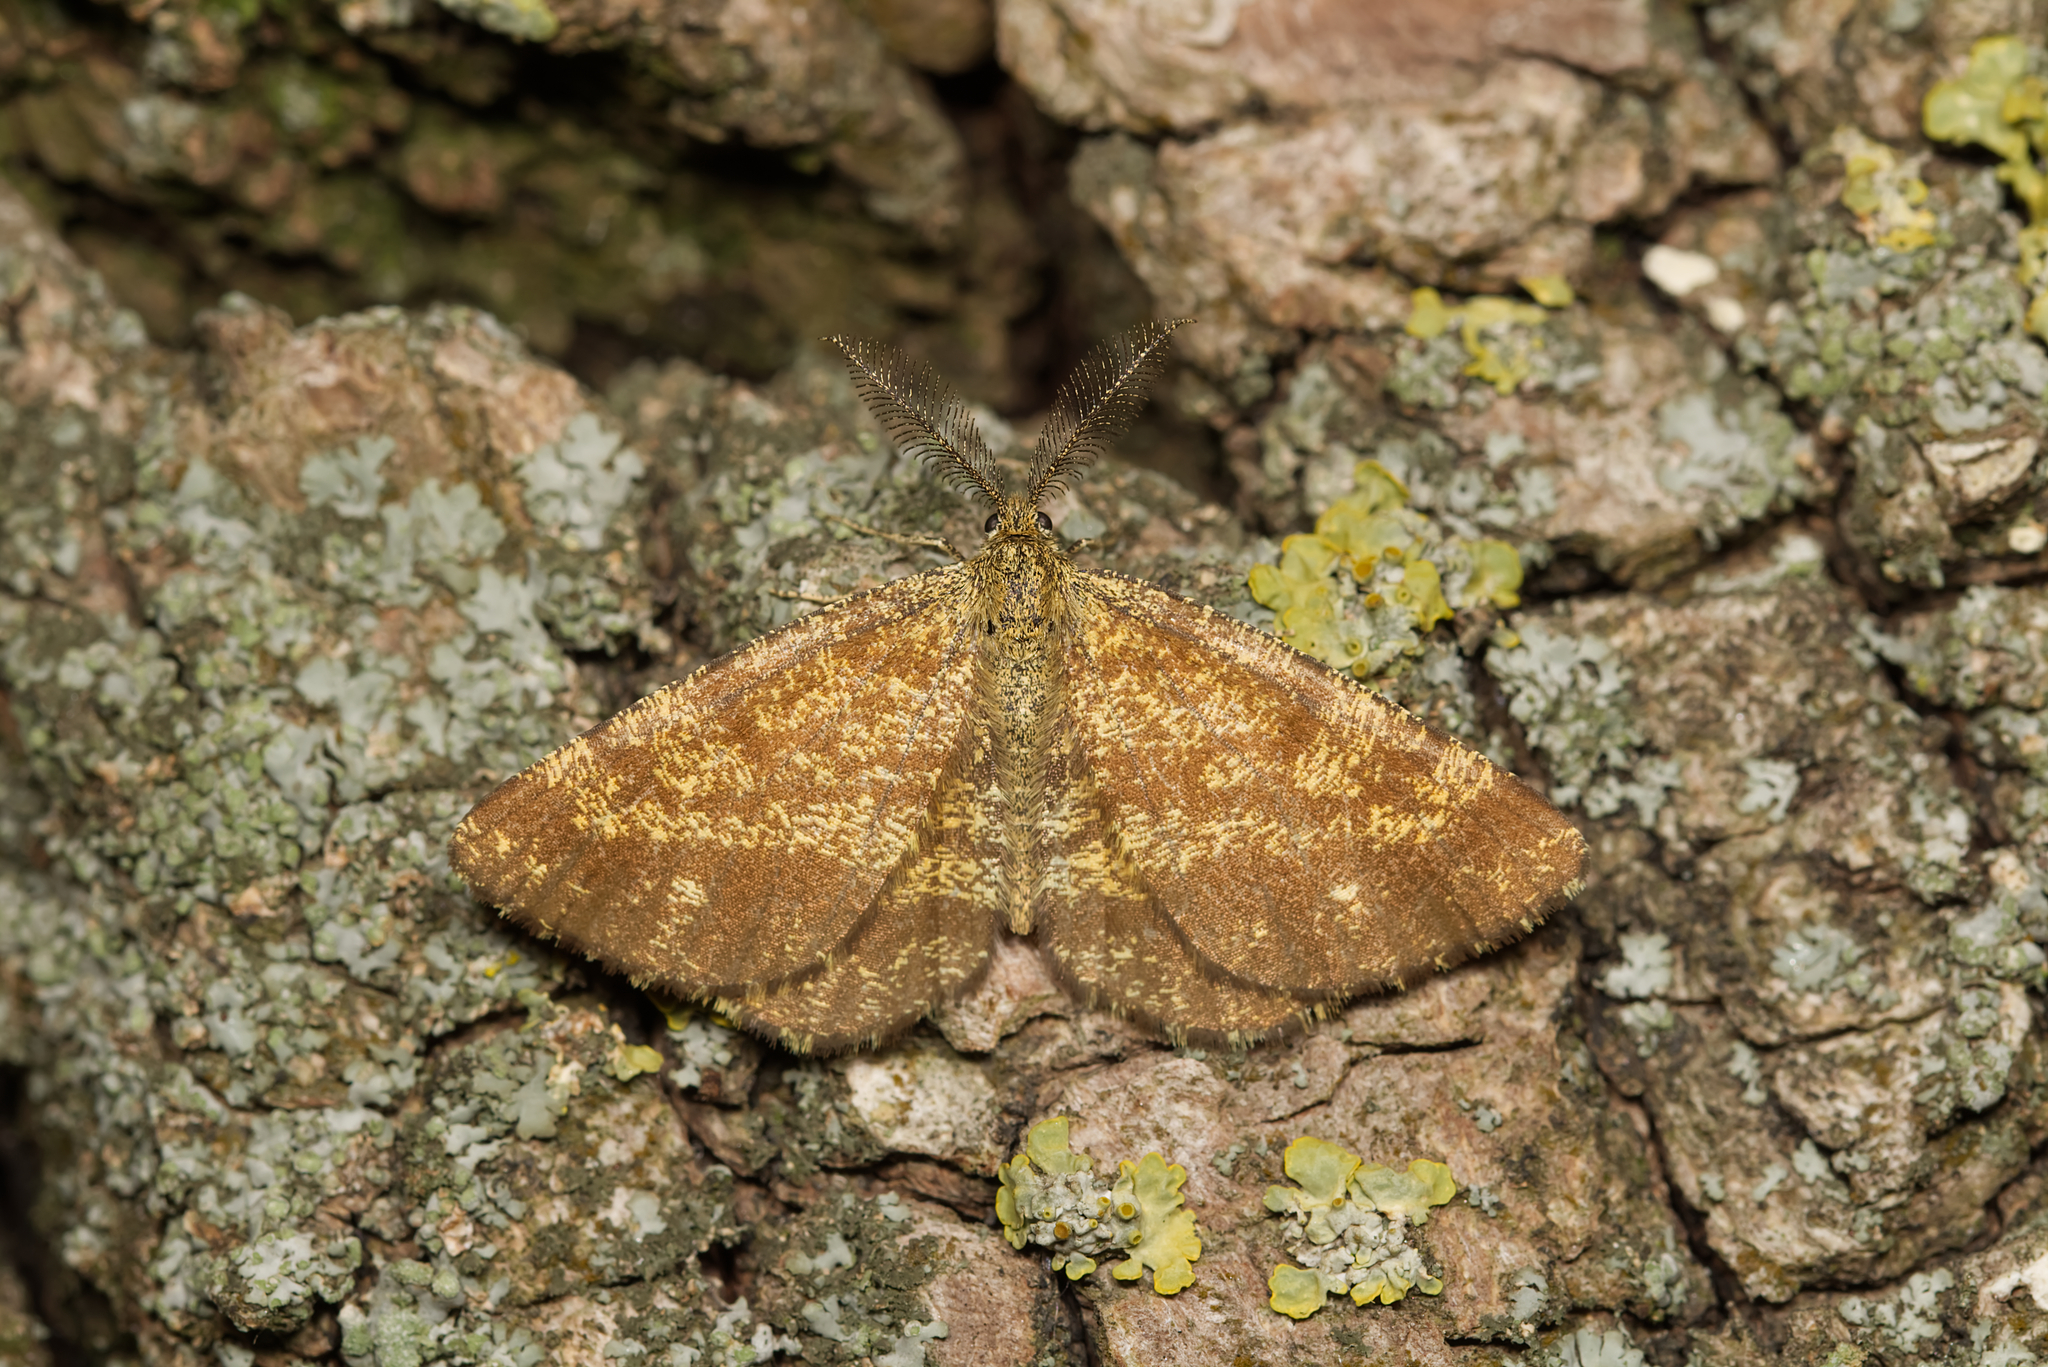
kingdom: Animalia
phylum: Arthropoda
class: Insecta
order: Lepidoptera
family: Geometridae
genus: Ematurga
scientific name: Ematurga atomaria
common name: Common heath
